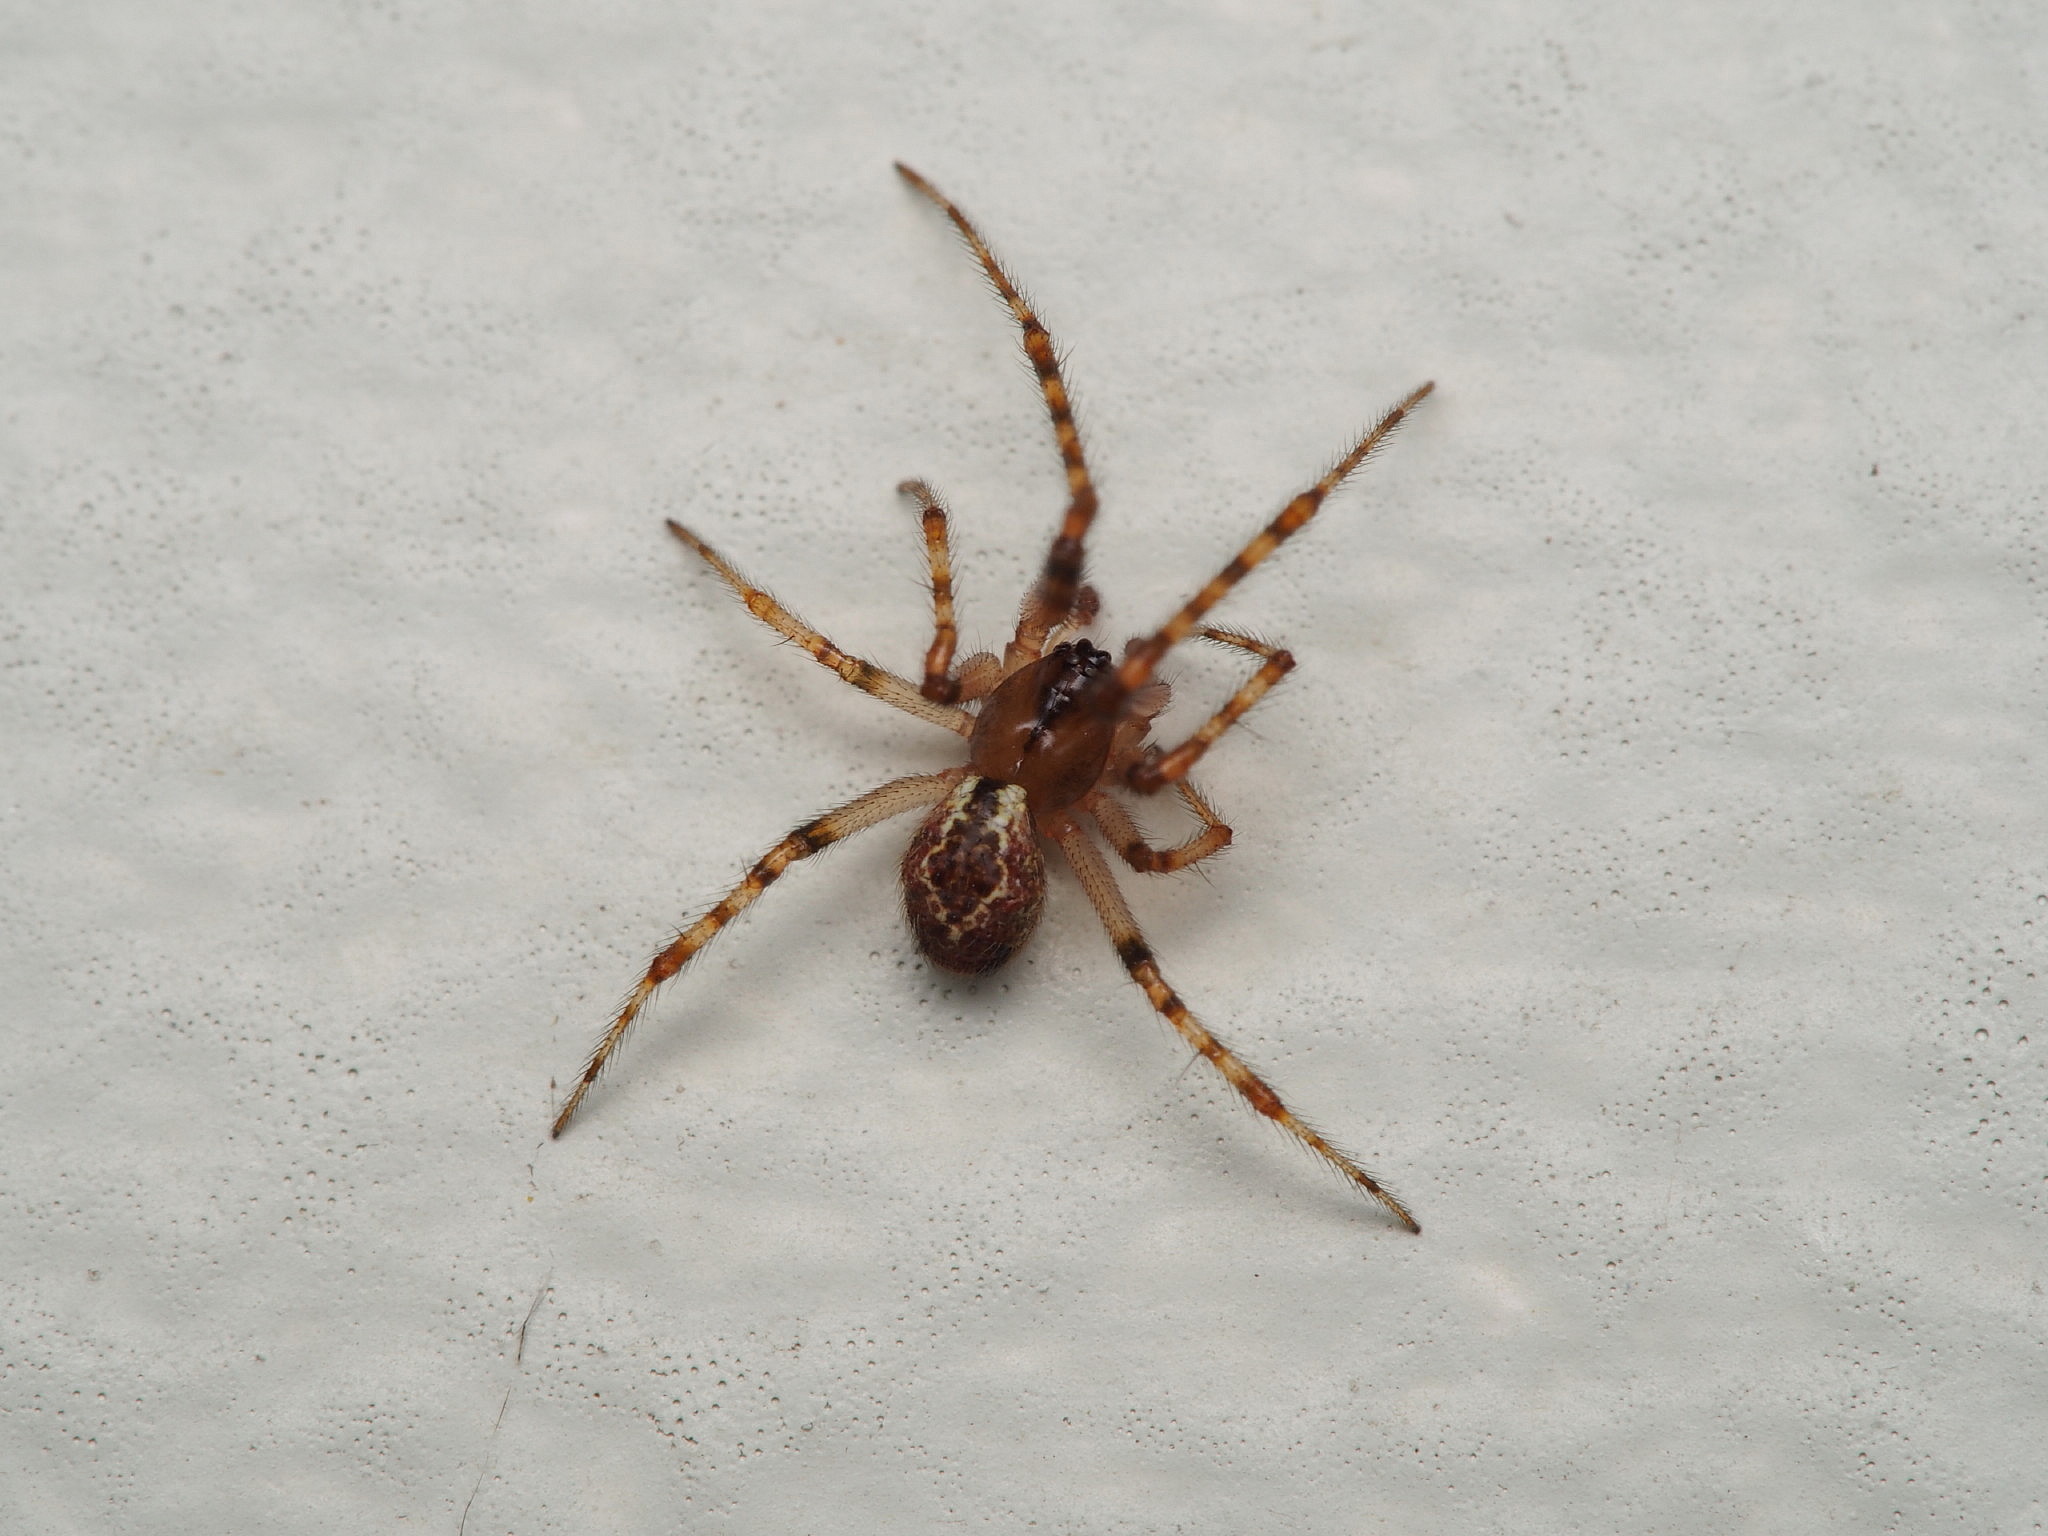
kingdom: Animalia
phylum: Arthropoda
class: Arachnida
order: Araneae
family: Theridiidae
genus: Cryptachaea
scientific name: Cryptachaea veruculata
